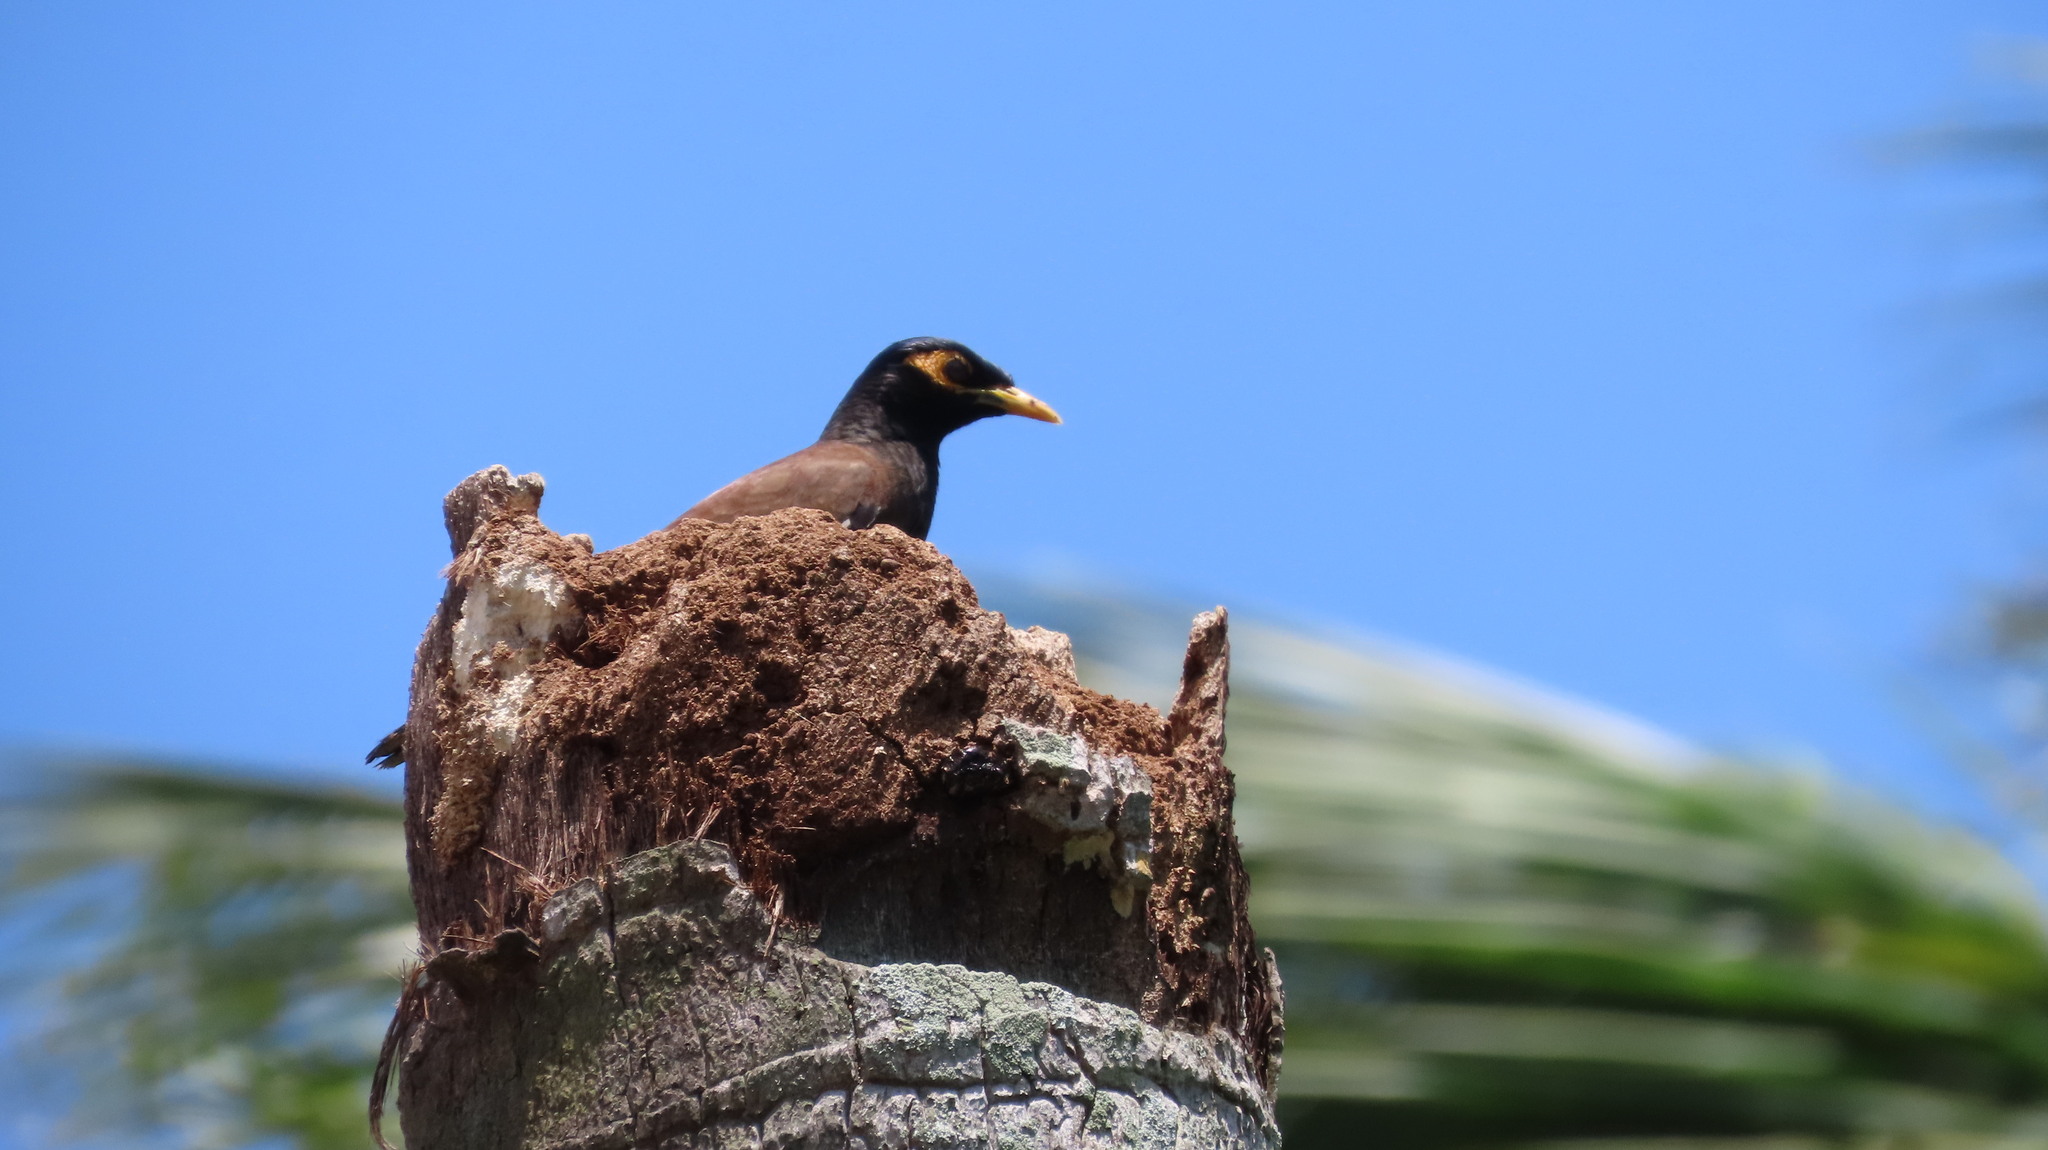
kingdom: Animalia
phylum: Chordata
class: Aves
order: Passeriformes
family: Sturnidae
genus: Acridotheres
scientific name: Acridotheres tristis
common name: Common myna
